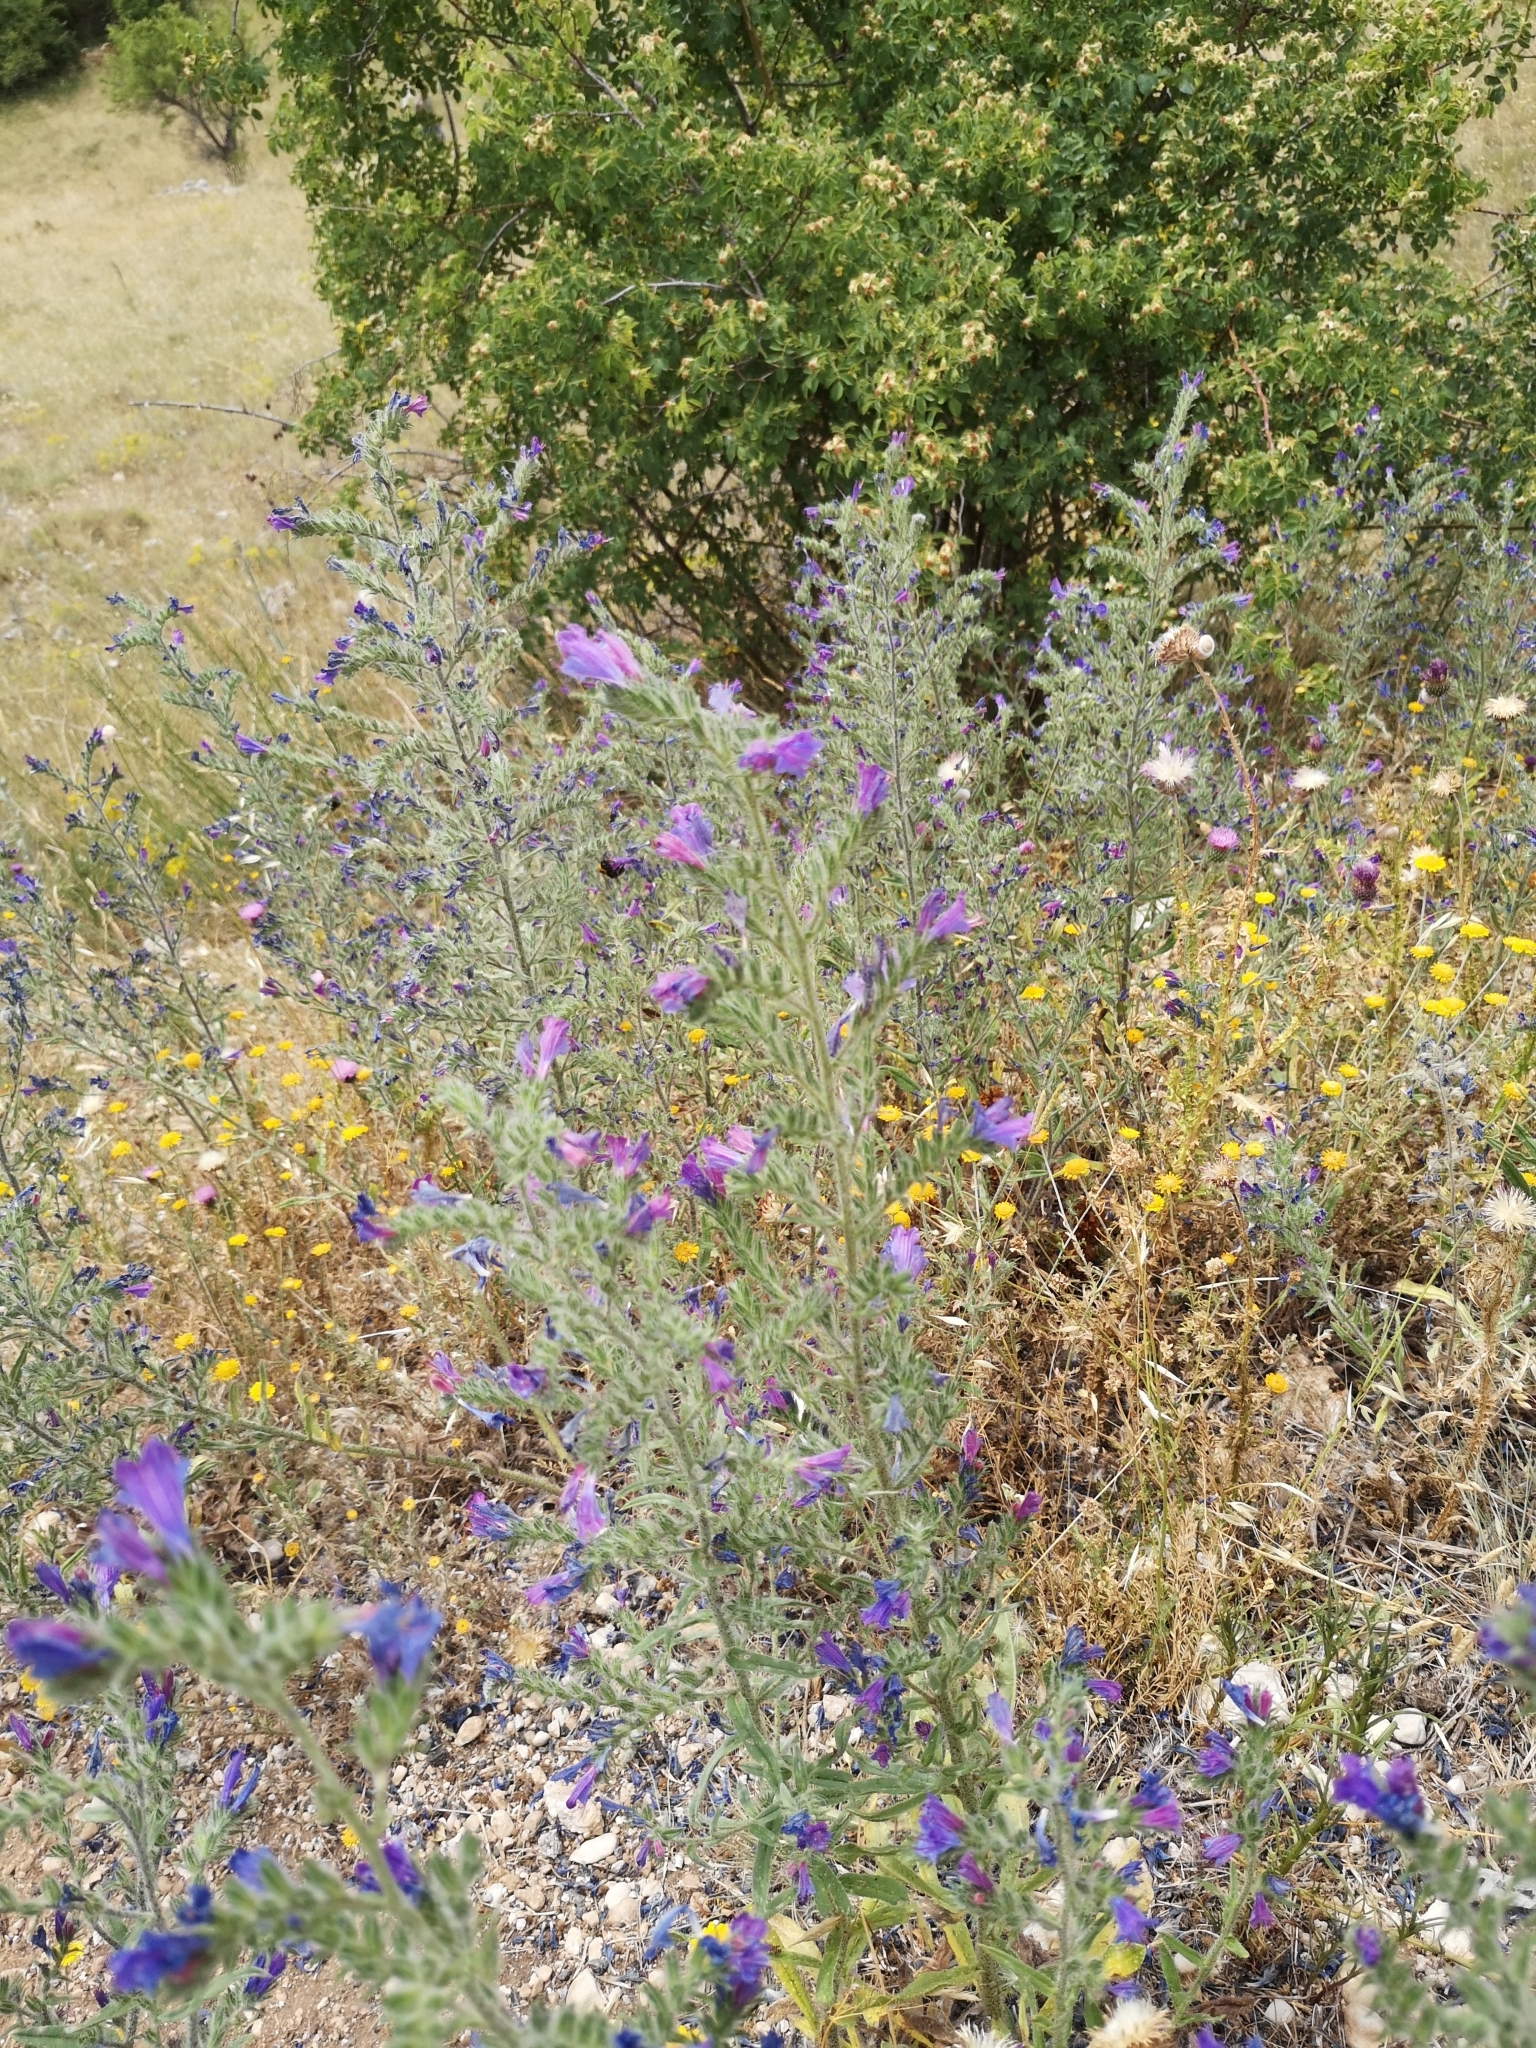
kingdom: Plantae
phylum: Tracheophyta
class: Magnoliopsida
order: Boraginales
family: Boraginaceae
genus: Echium
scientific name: Echium vulgare
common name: Common viper's bugloss
